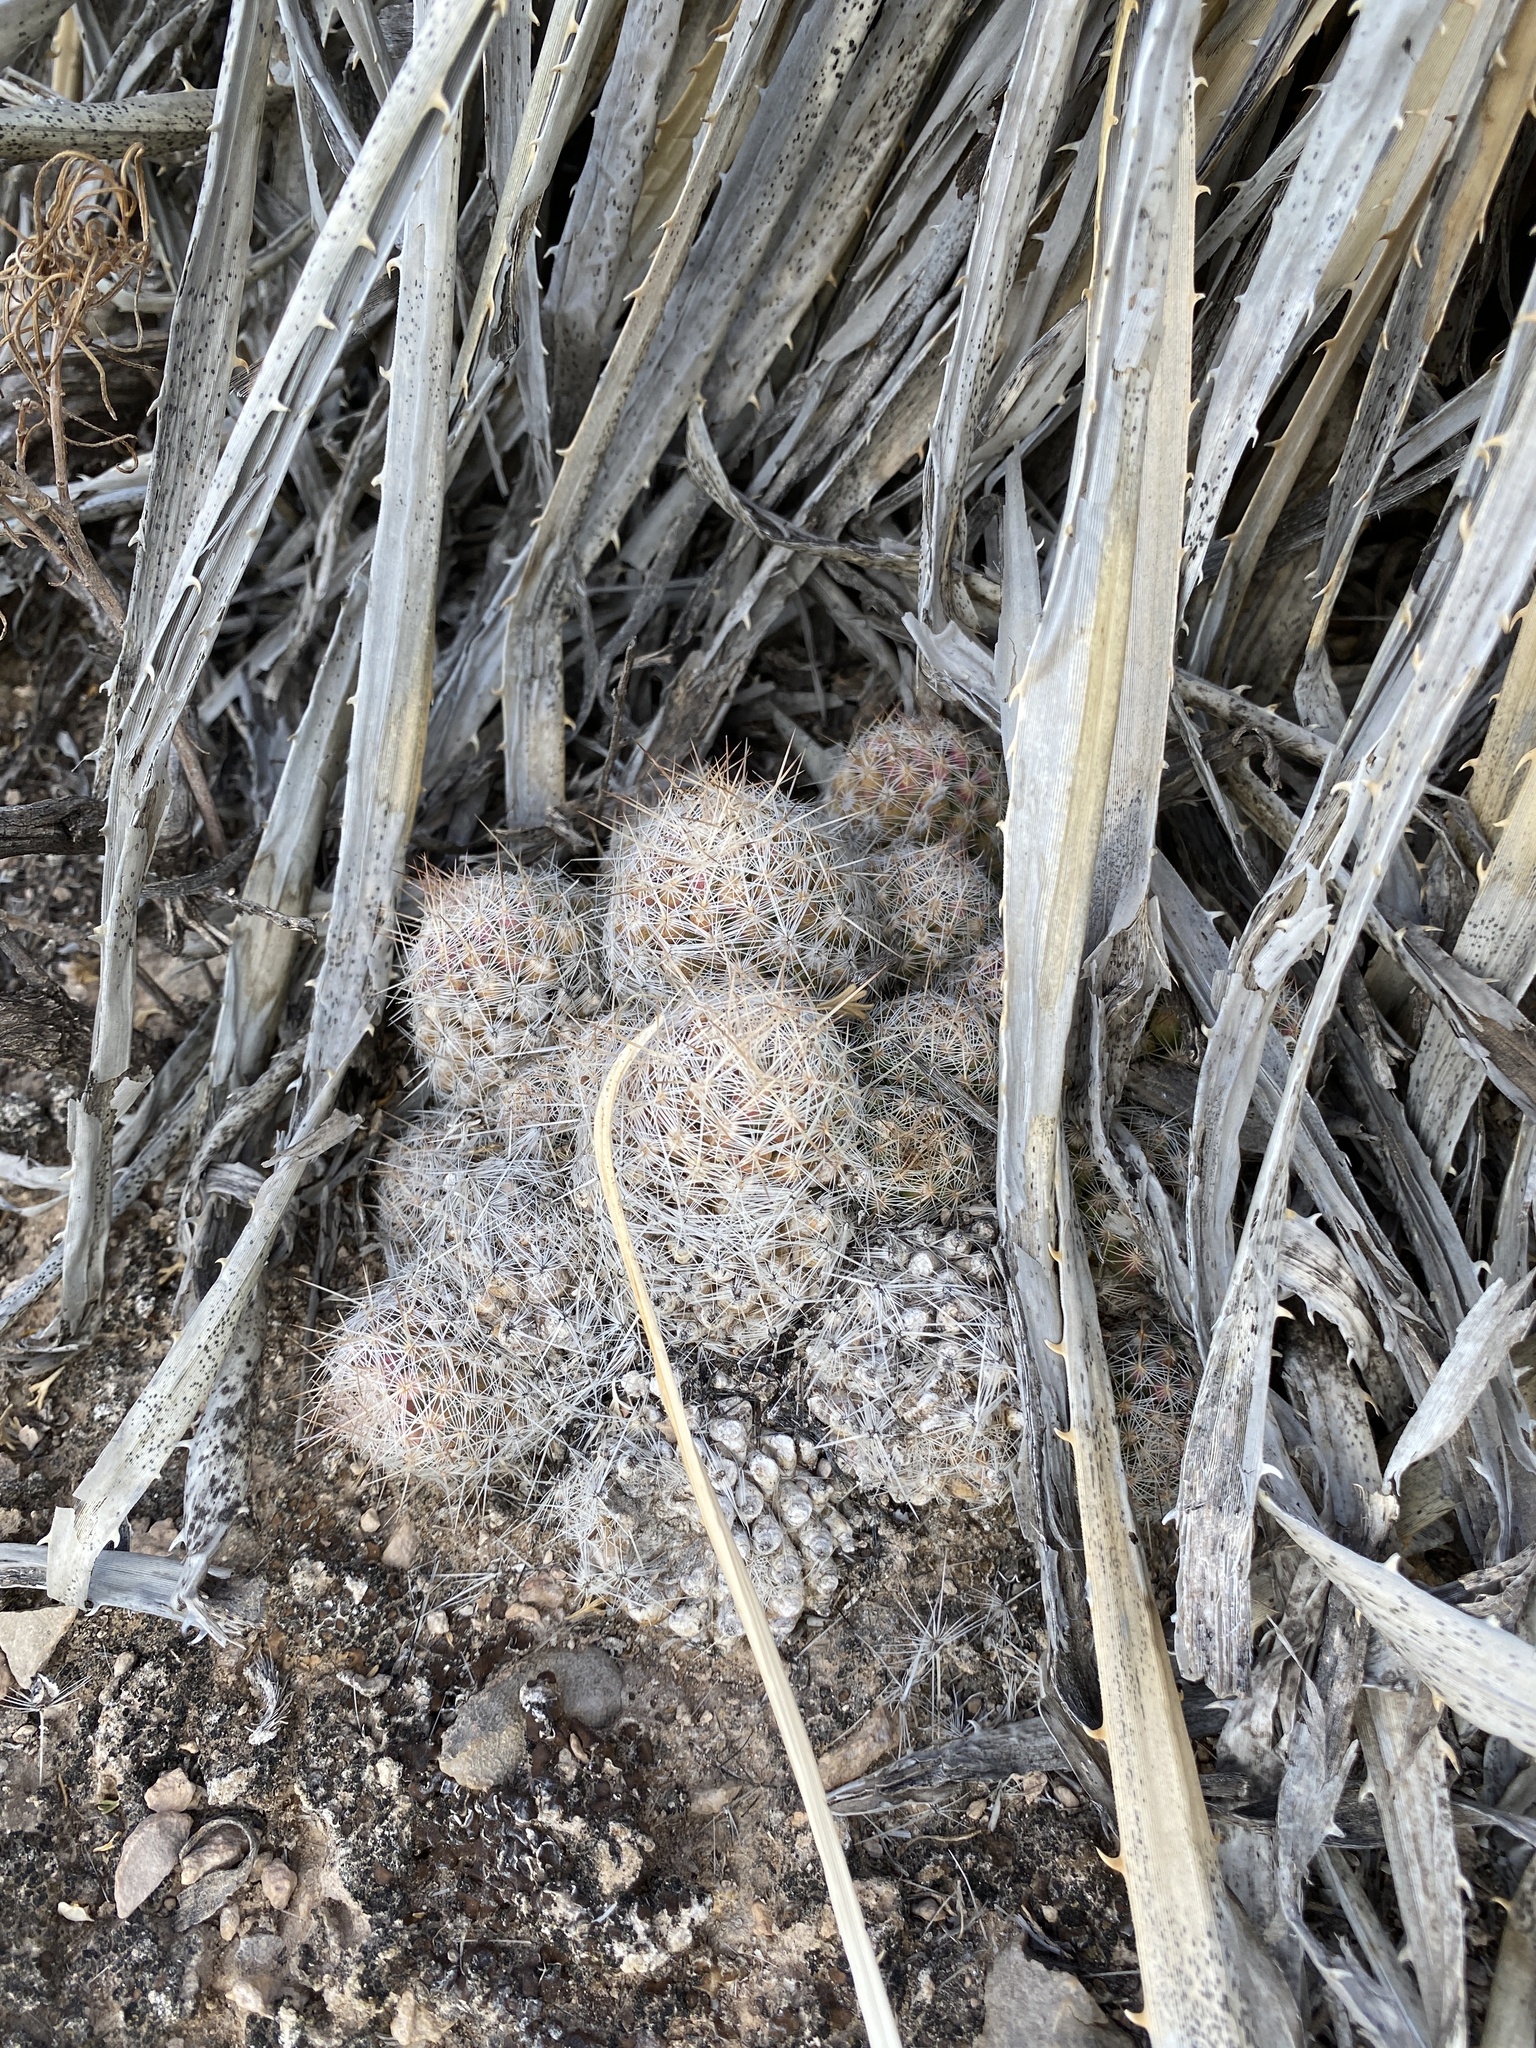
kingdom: Plantae
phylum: Tracheophyta
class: Magnoliopsida
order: Caryophyllales
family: Cactaceae
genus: Pelecyphora
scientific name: Pelecyphora tuberculosa
